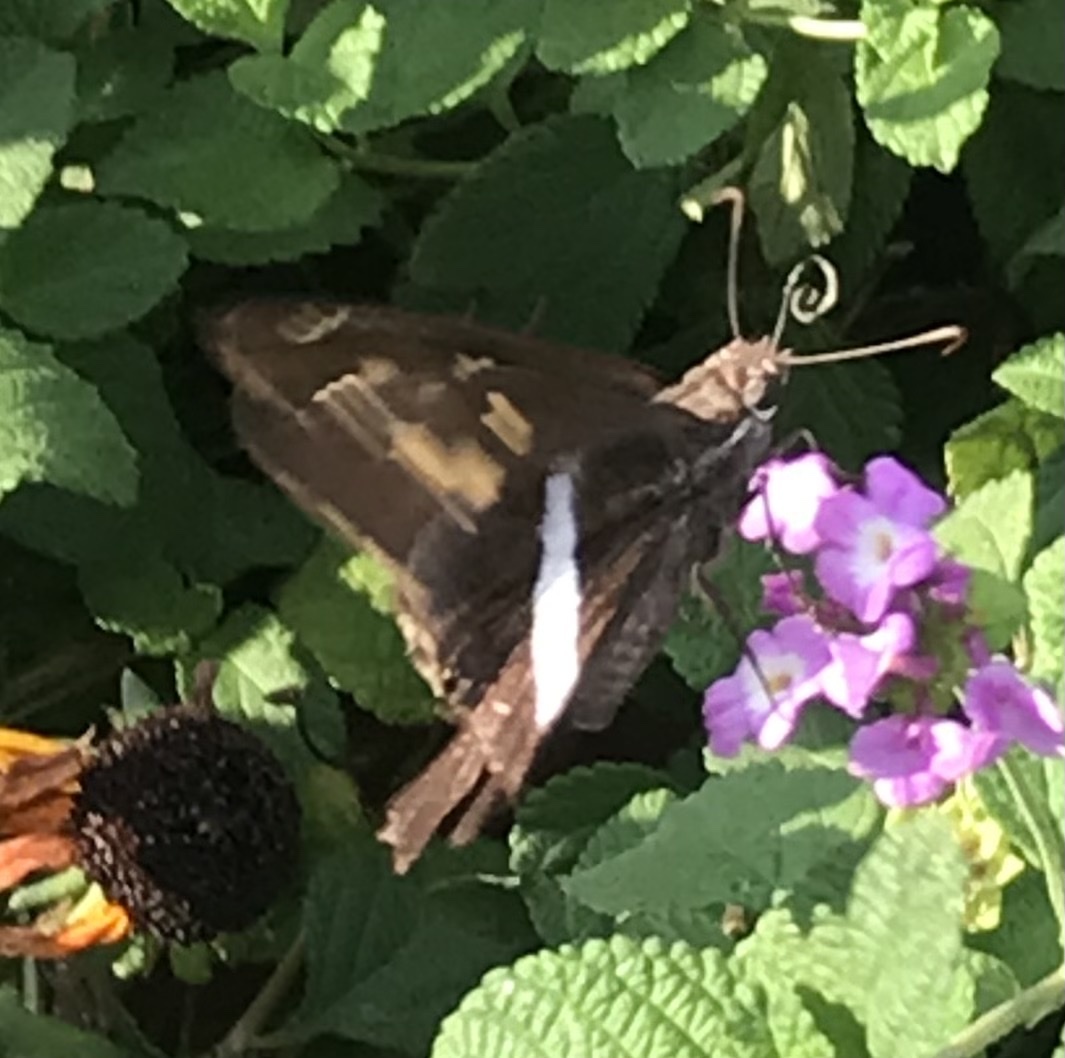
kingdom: Animalia
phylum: Arthropoda
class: Insecta
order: Lepidoptera
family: Hesperiidae
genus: Chioides
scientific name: Chioides catillus
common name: Silverbanded skipper
